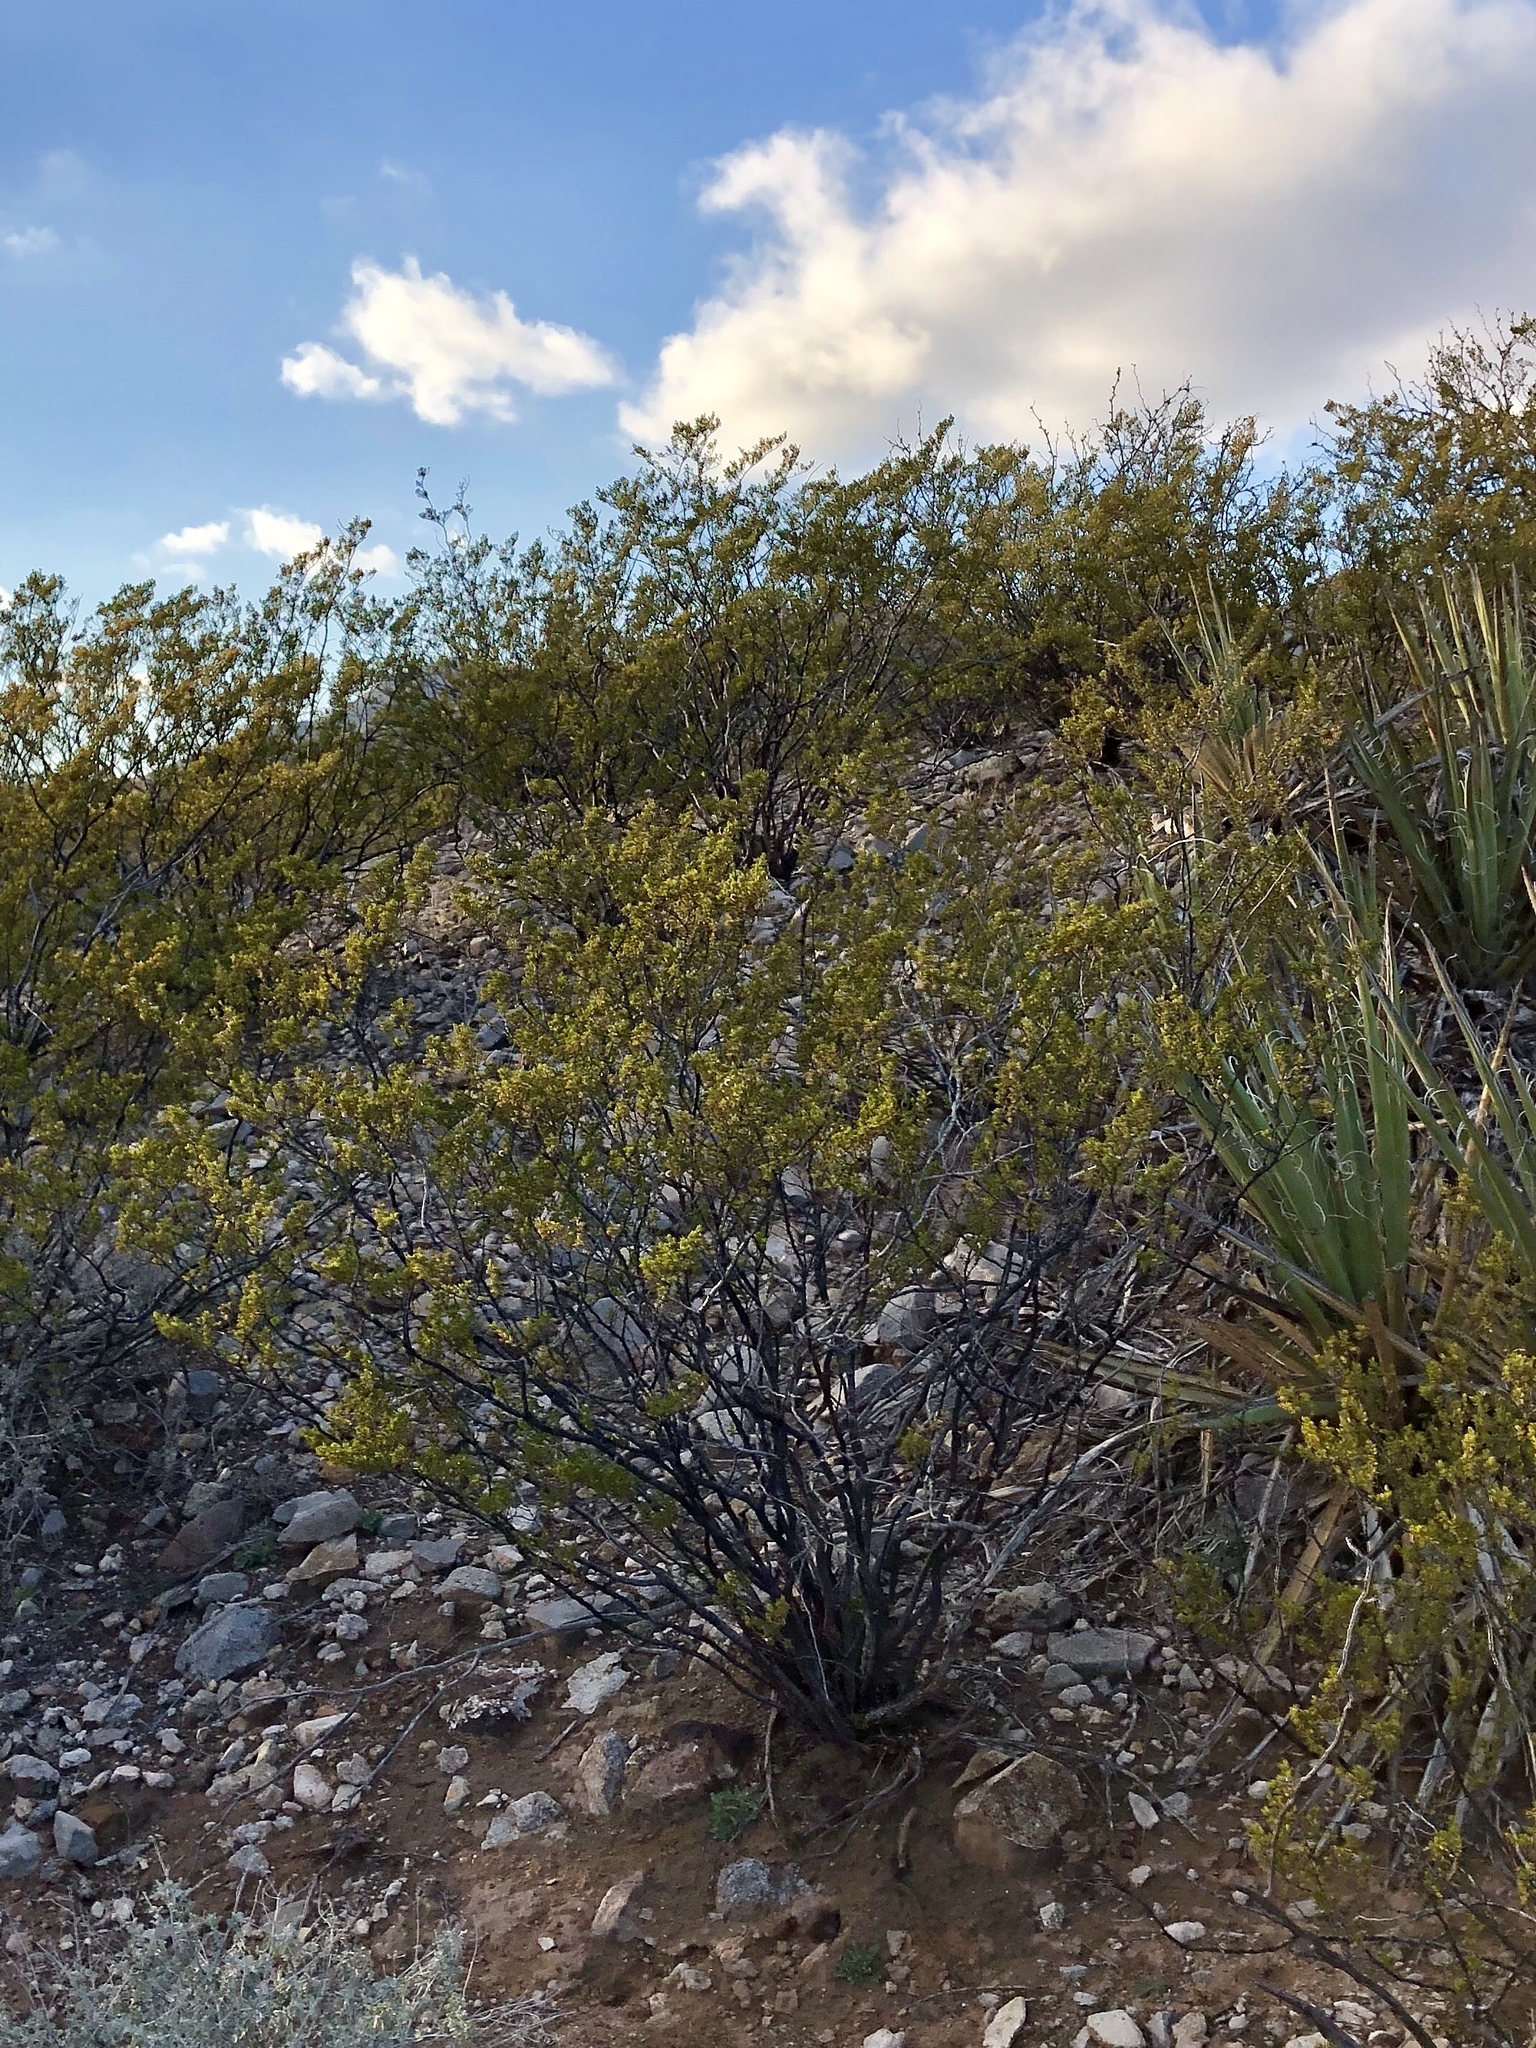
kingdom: Plantae
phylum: Tracheophyta
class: Magnoliopsida
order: Zygophyllales
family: Zygophyllaceae
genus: Larrea
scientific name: Larrea tridentata
